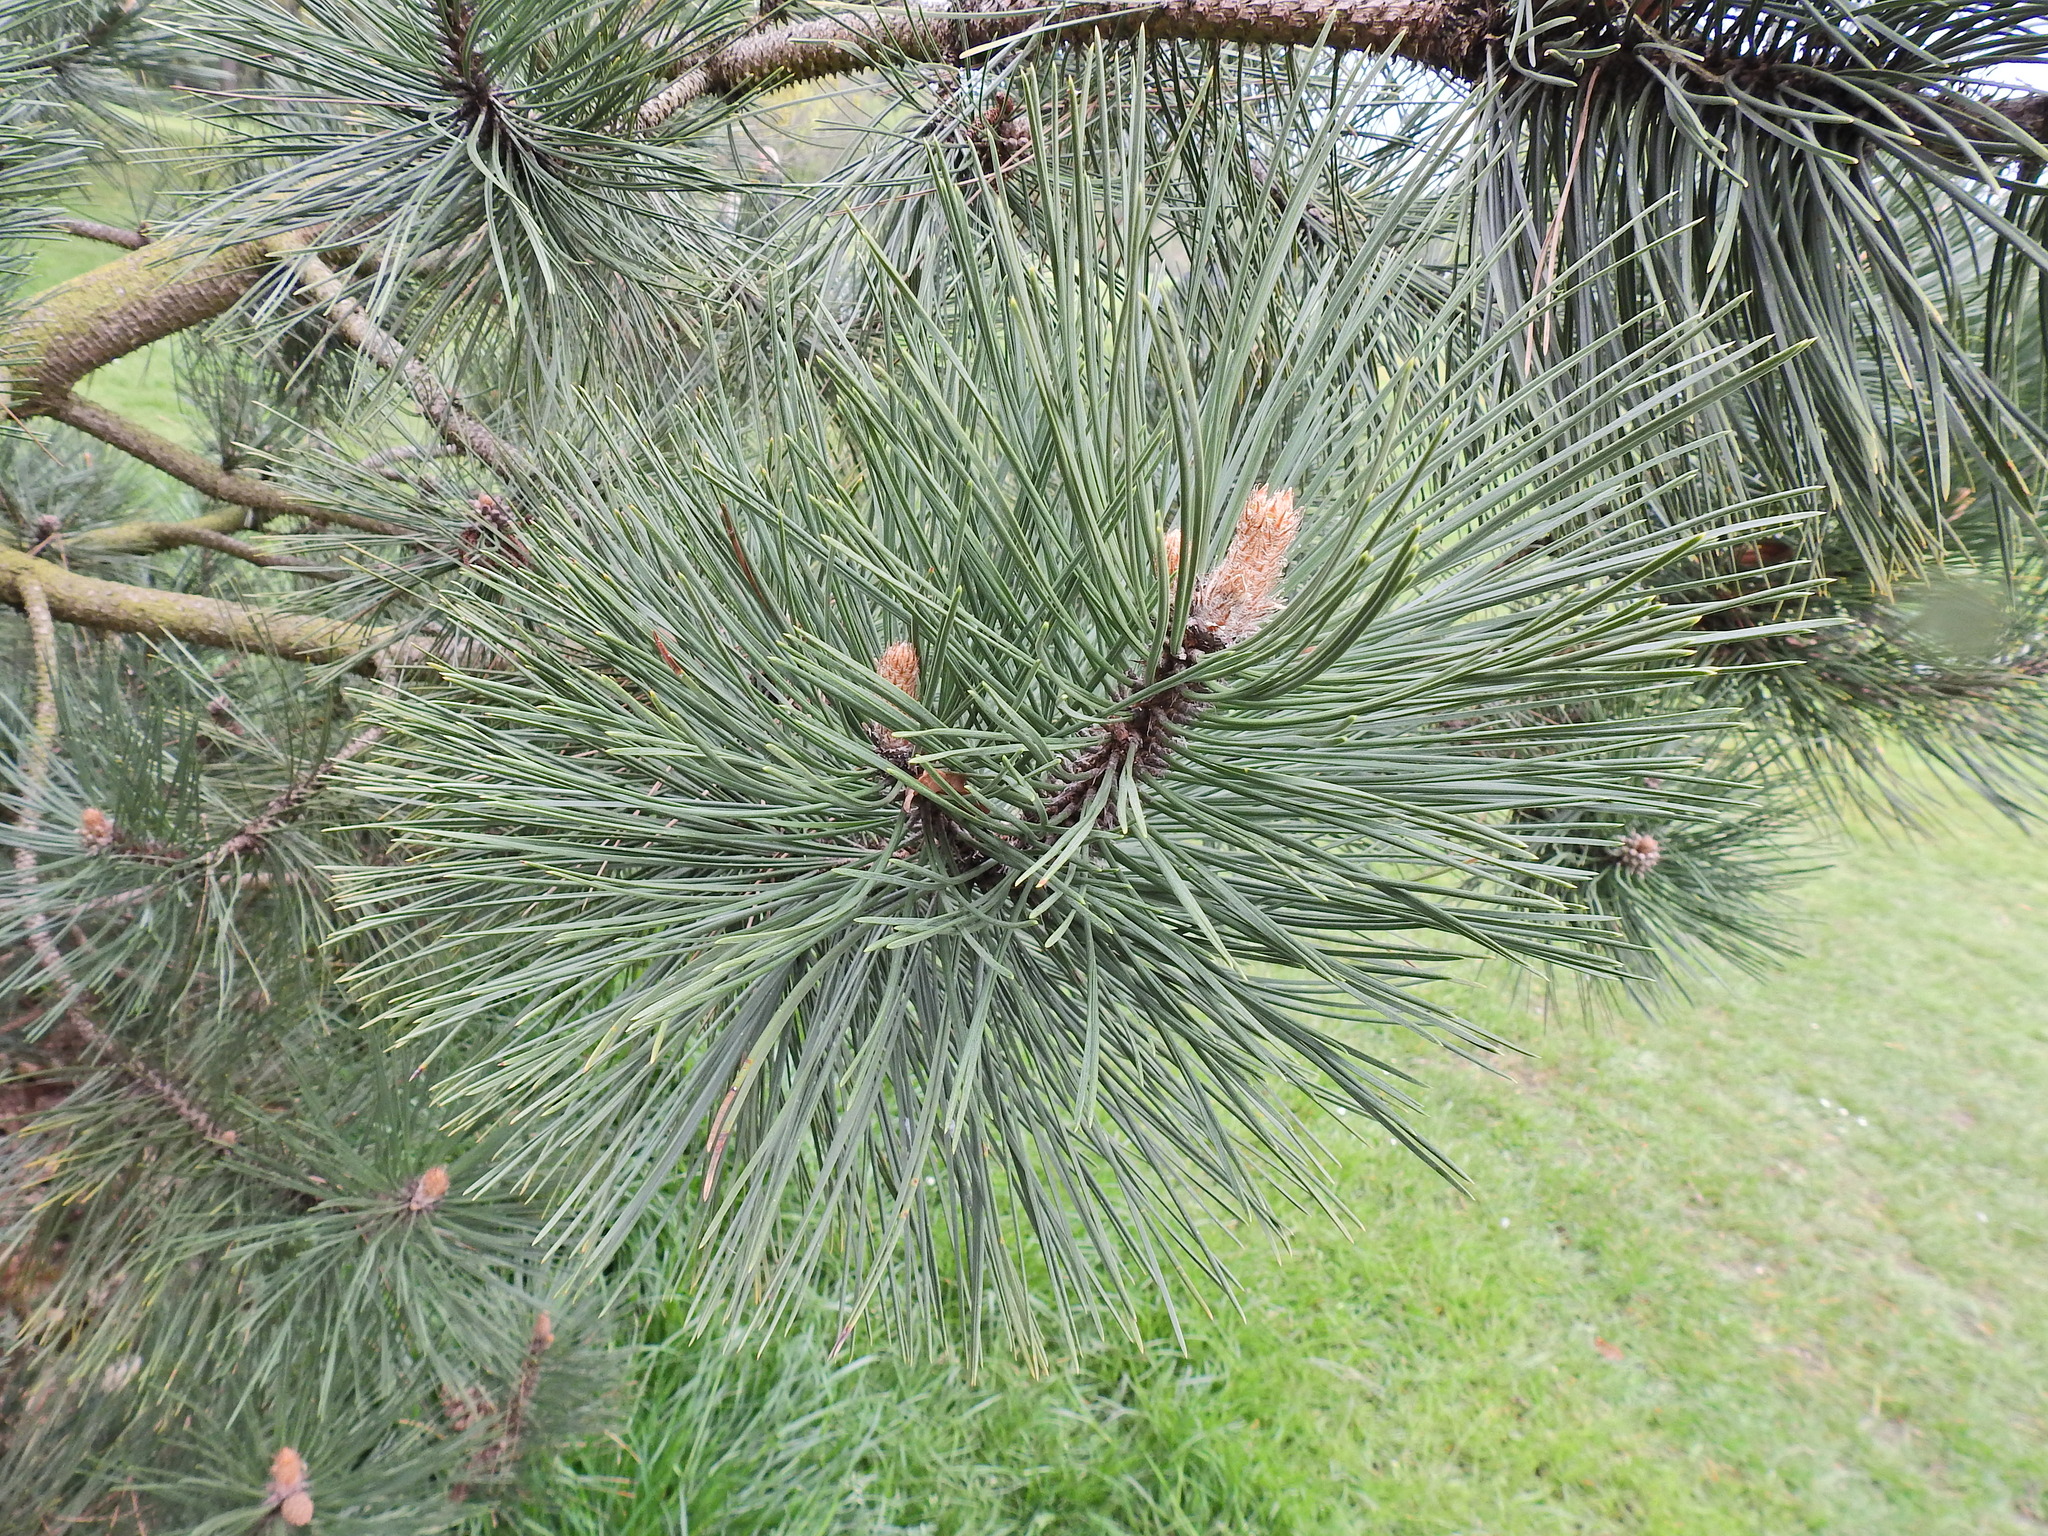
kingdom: Plantae
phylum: Tracheophyta
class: Pinopsida
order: Pinales
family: Pinaceae
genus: Pinus
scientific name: Pinus nigra
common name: Austrian pine
